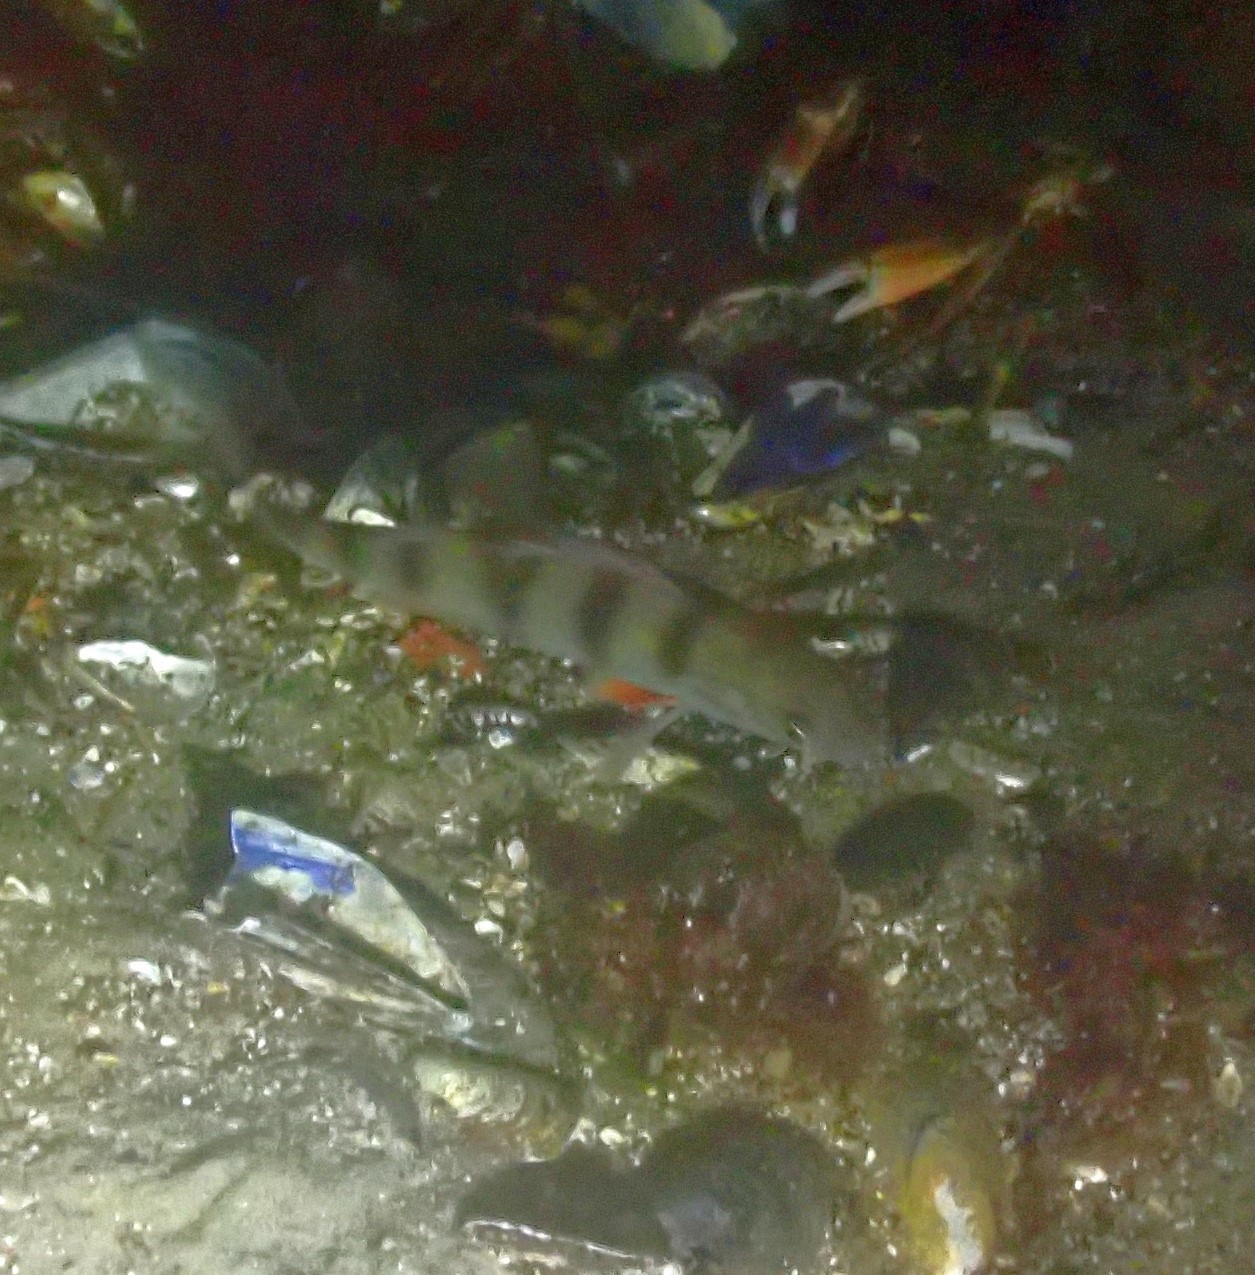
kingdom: Animalia
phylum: Chordata
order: Perciformes
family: Percidae
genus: Perca
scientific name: Perca fluviatilis
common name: Perch
